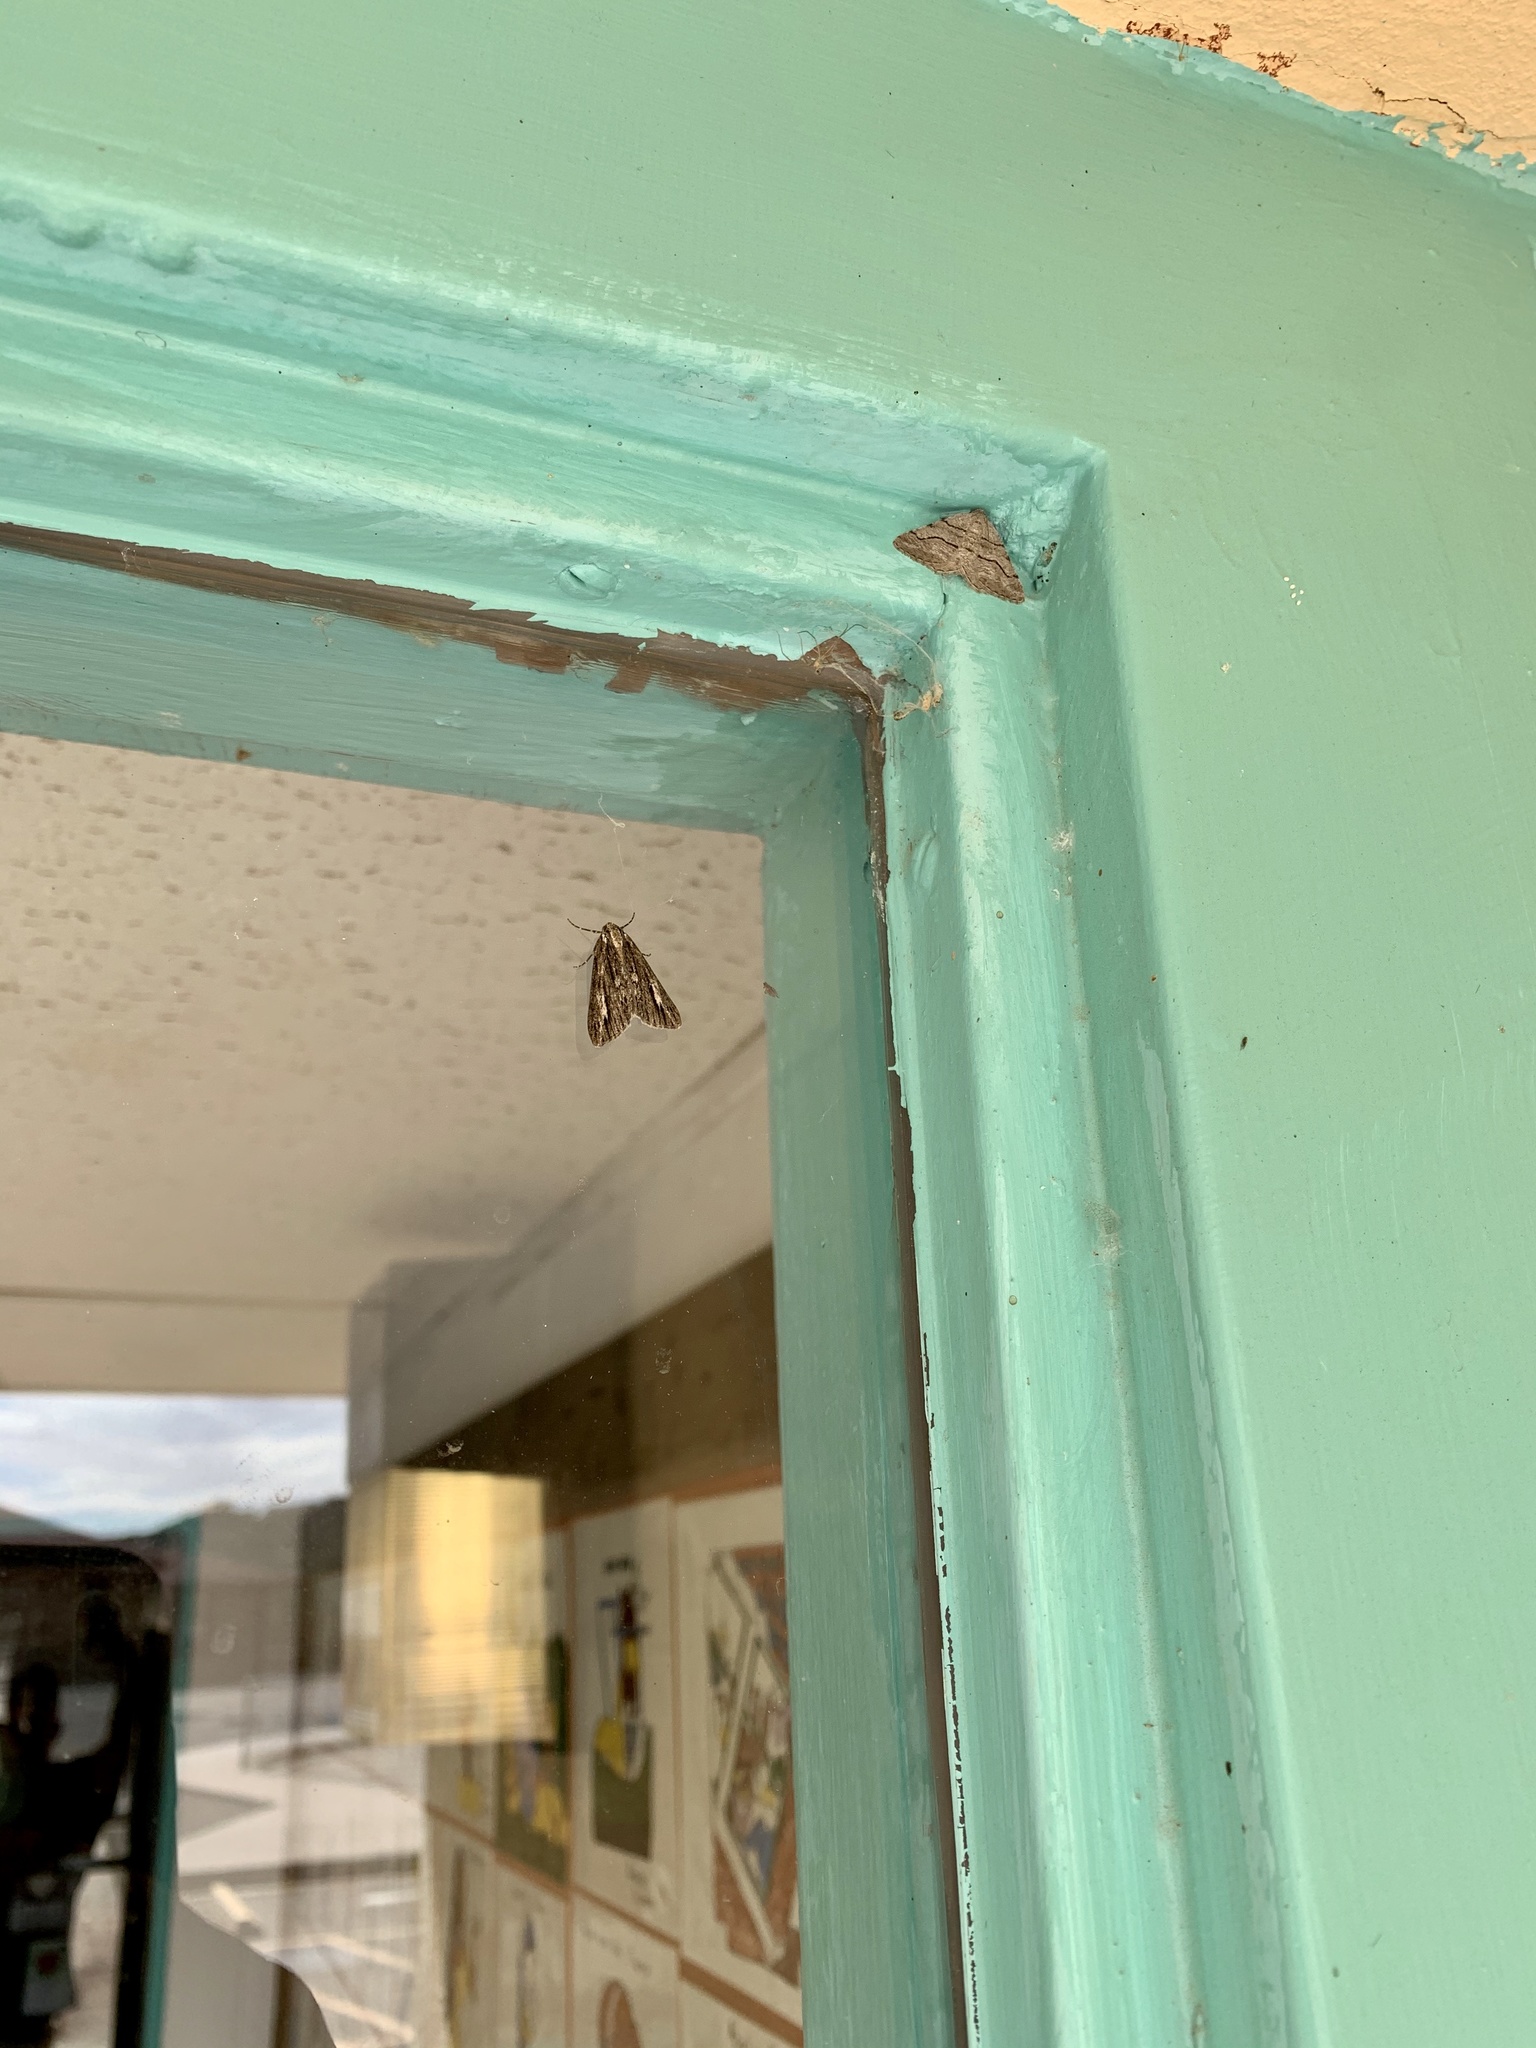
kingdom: Animalia
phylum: Arthropoda
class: Insecta
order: Lepidoptera
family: Geometridae
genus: Carphoides
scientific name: Carphoides incopriarius
